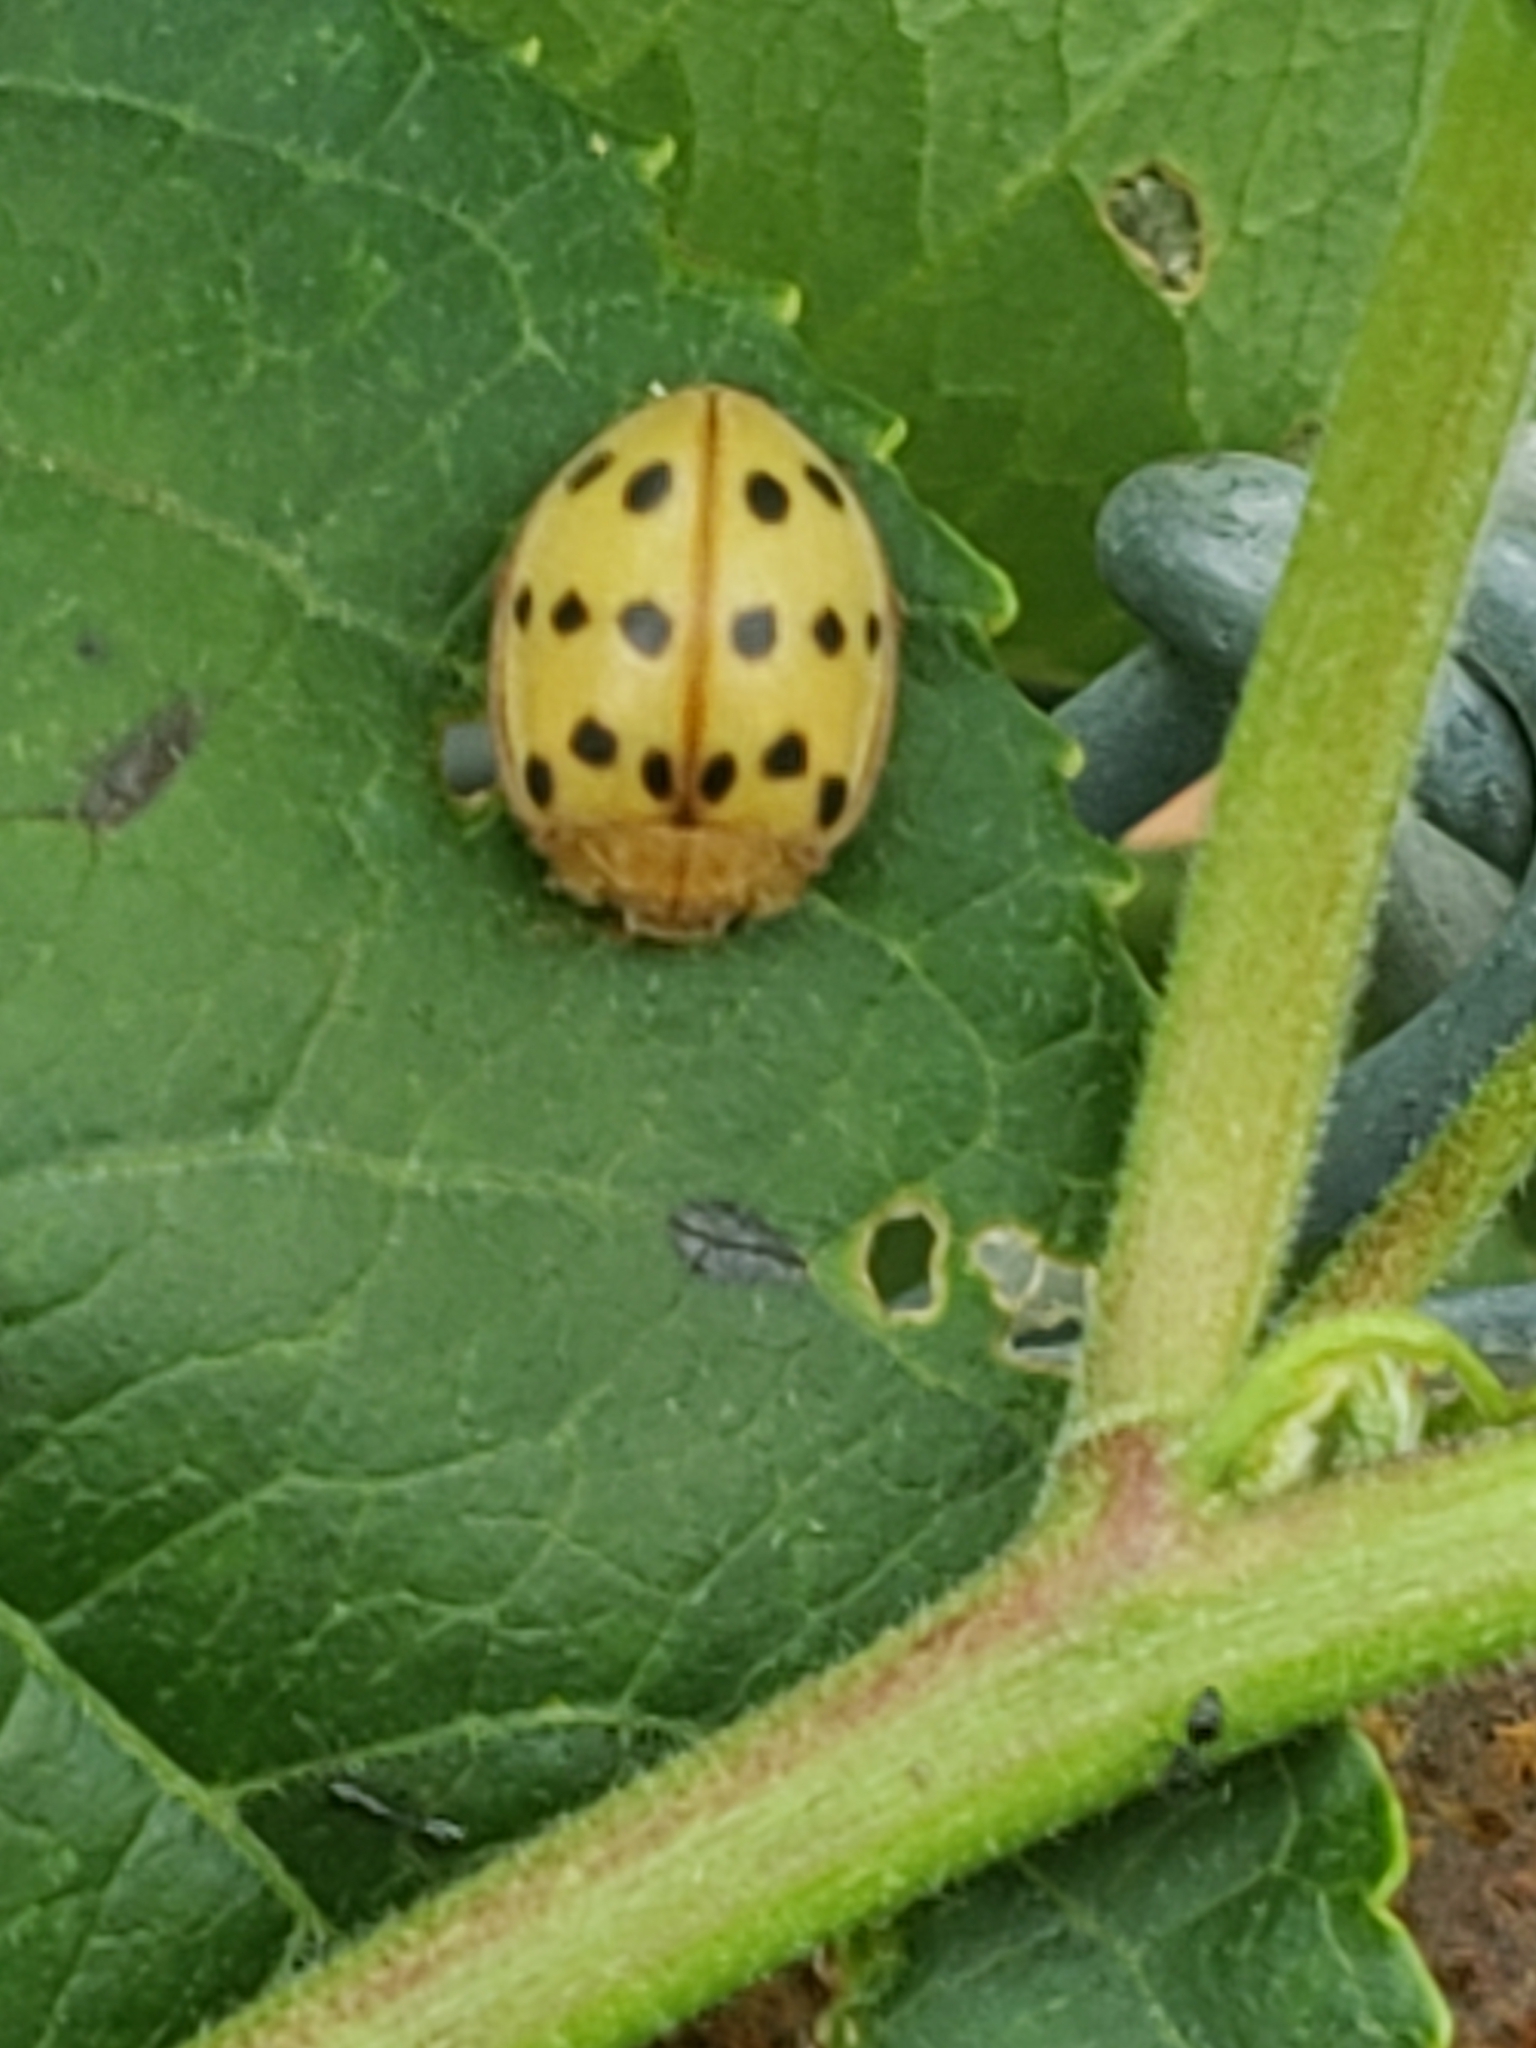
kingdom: Animalia
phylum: Arthropoda
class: Insecta
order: Coleoptera
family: Coccinellidae
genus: Epilachna
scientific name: Epilachna varivestis
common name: Ladybird beetle
